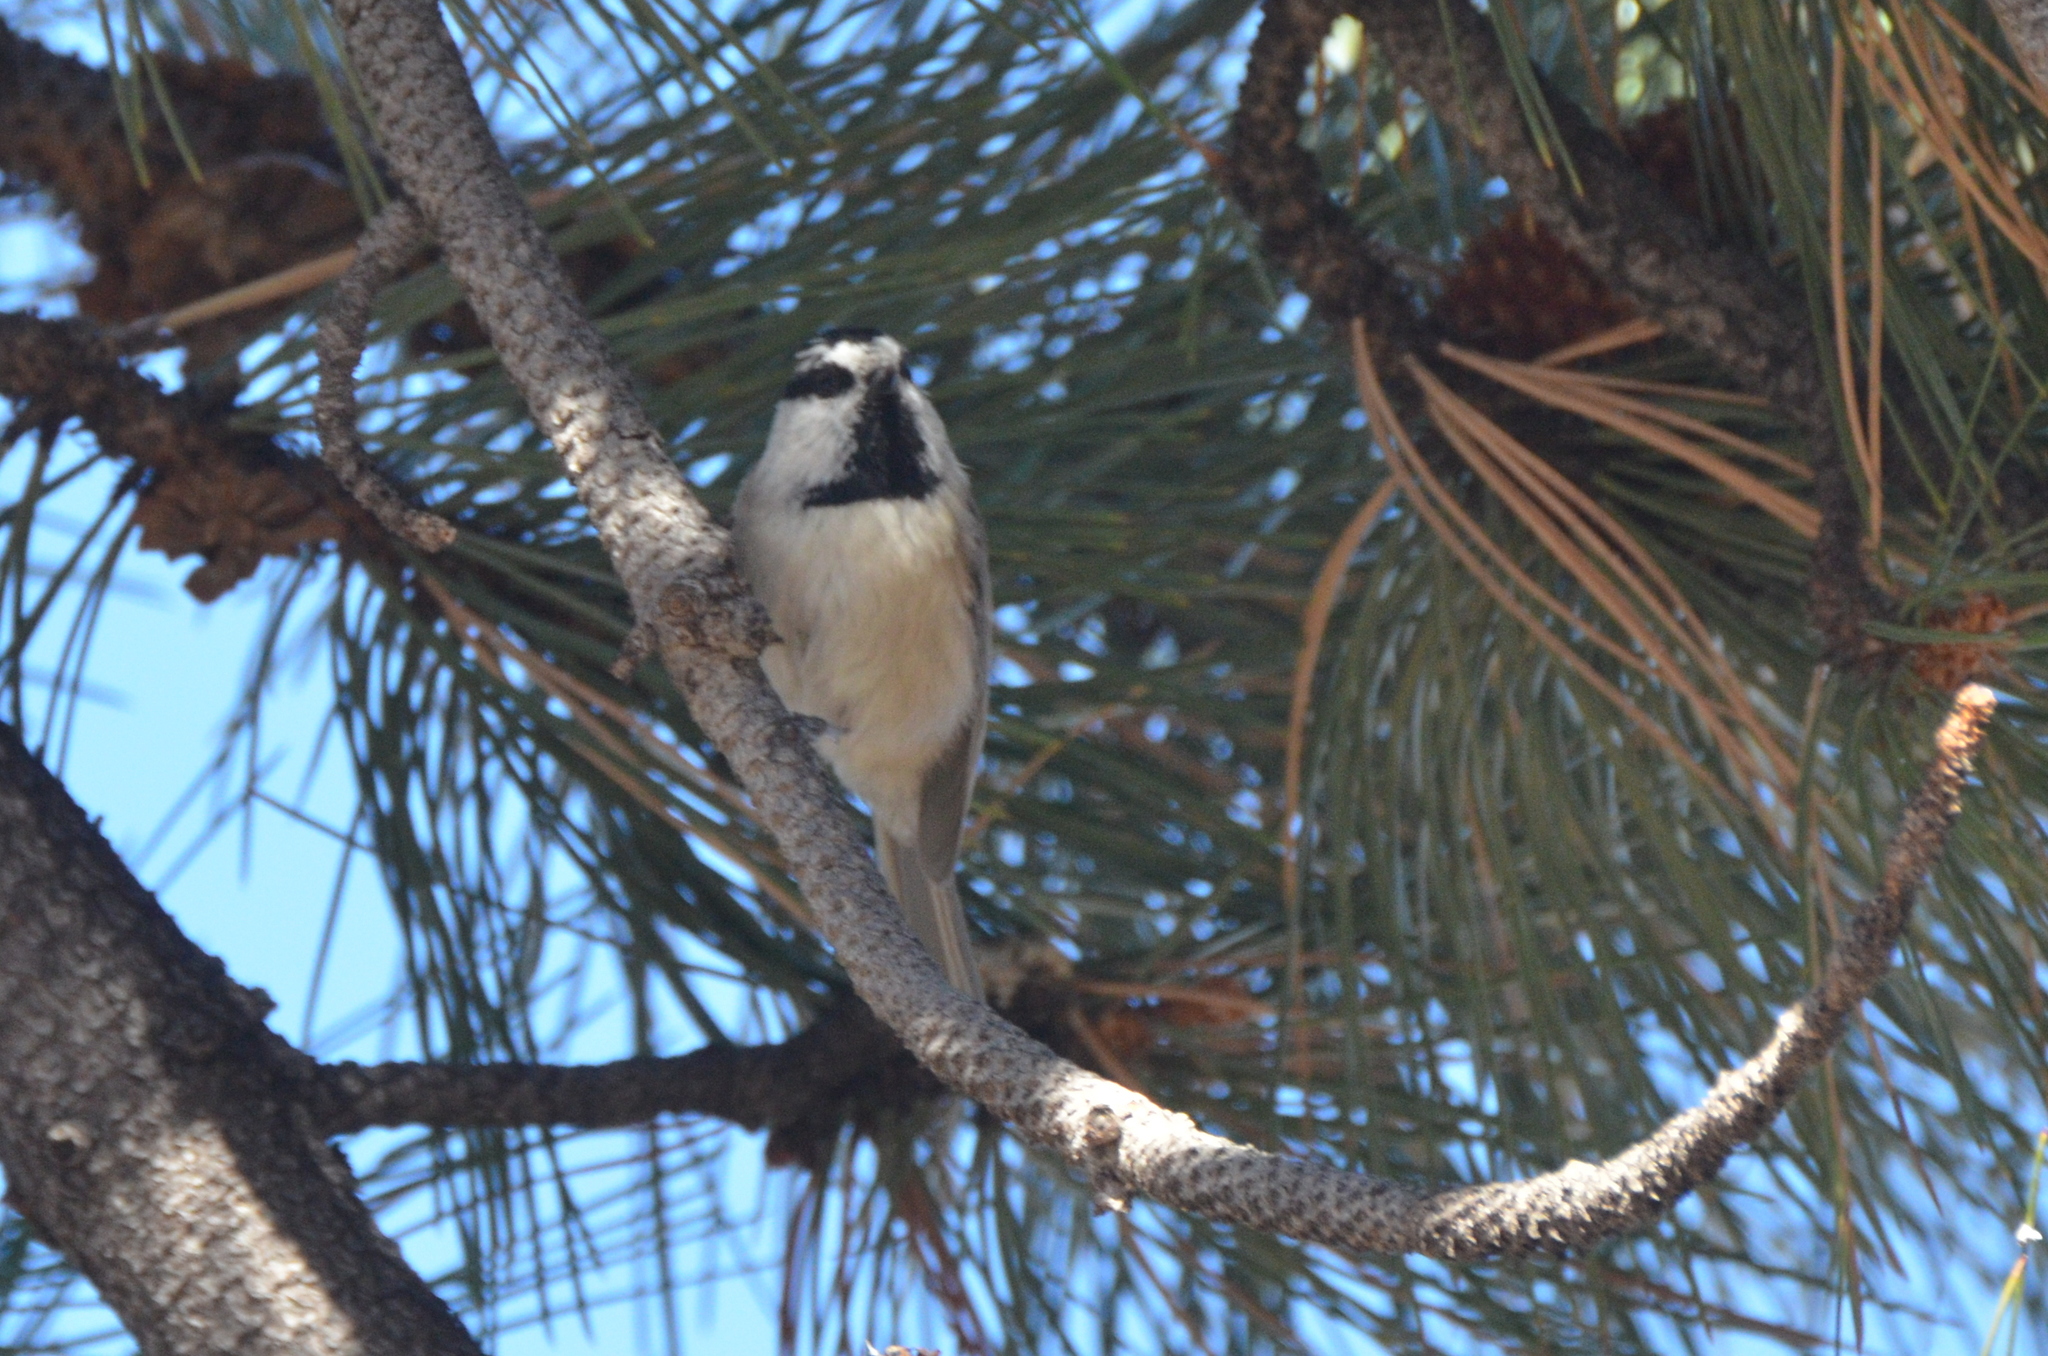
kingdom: Animalia
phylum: Chordata
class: Aves
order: Passeriformes
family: Paridae
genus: Poecile
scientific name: Poecile gambeli
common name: Mountain chickadee
